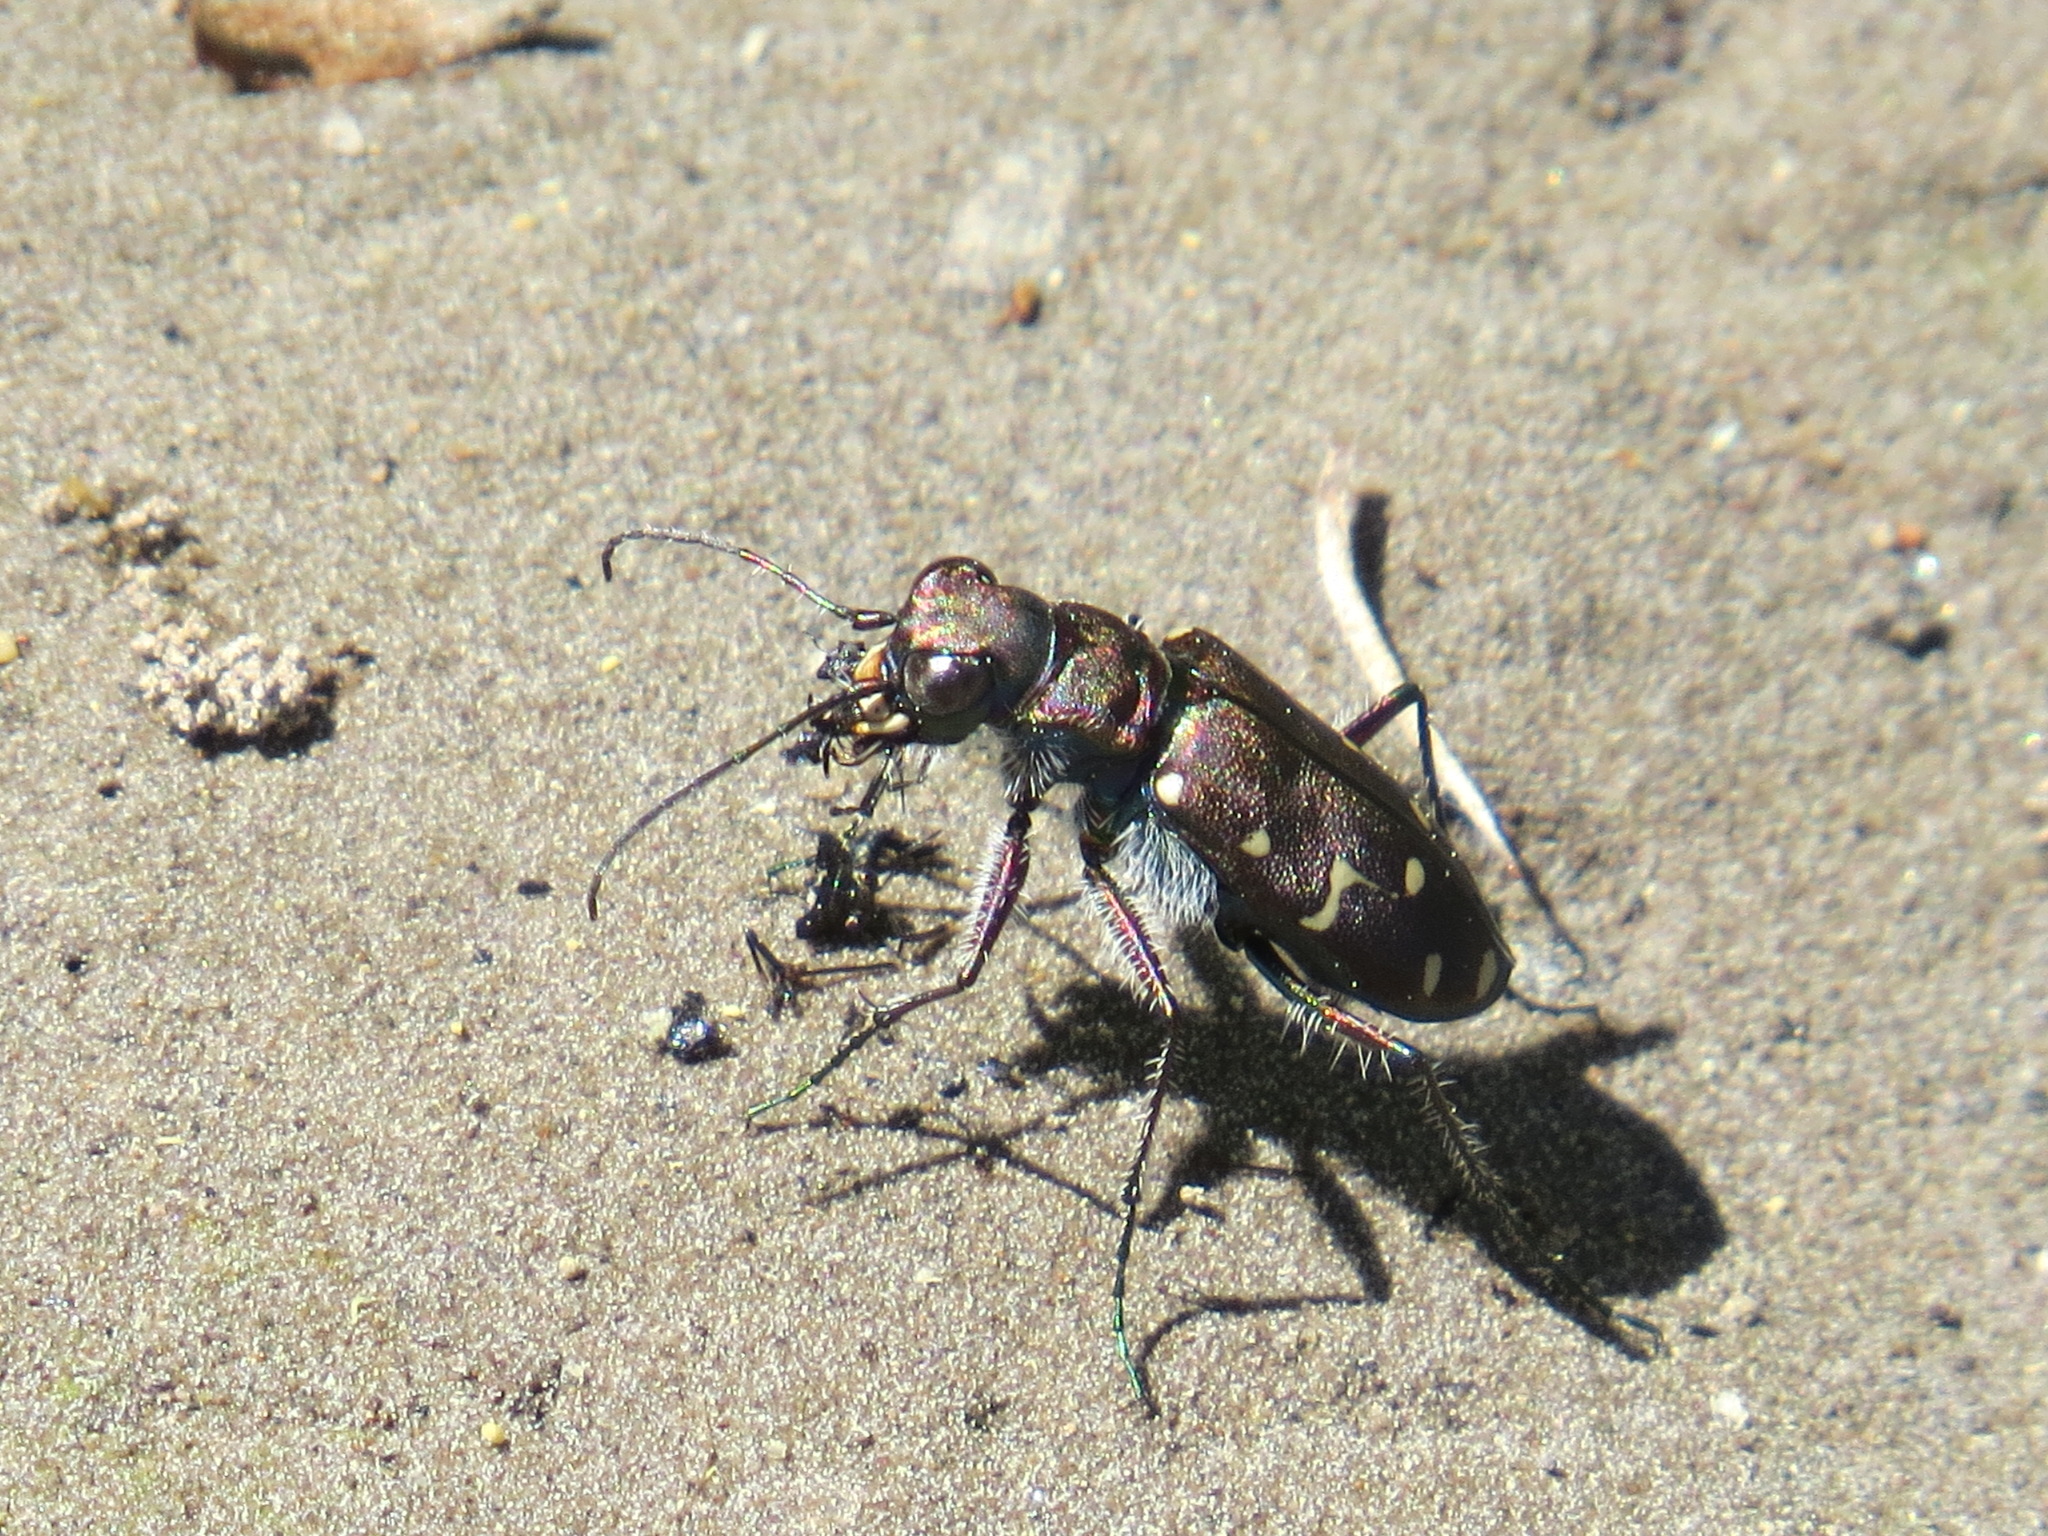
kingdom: Animalia
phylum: Arthropoda
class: Insecta
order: Coleoptera
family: Carabidae
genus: Cicindela
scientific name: Cicindela oregona
